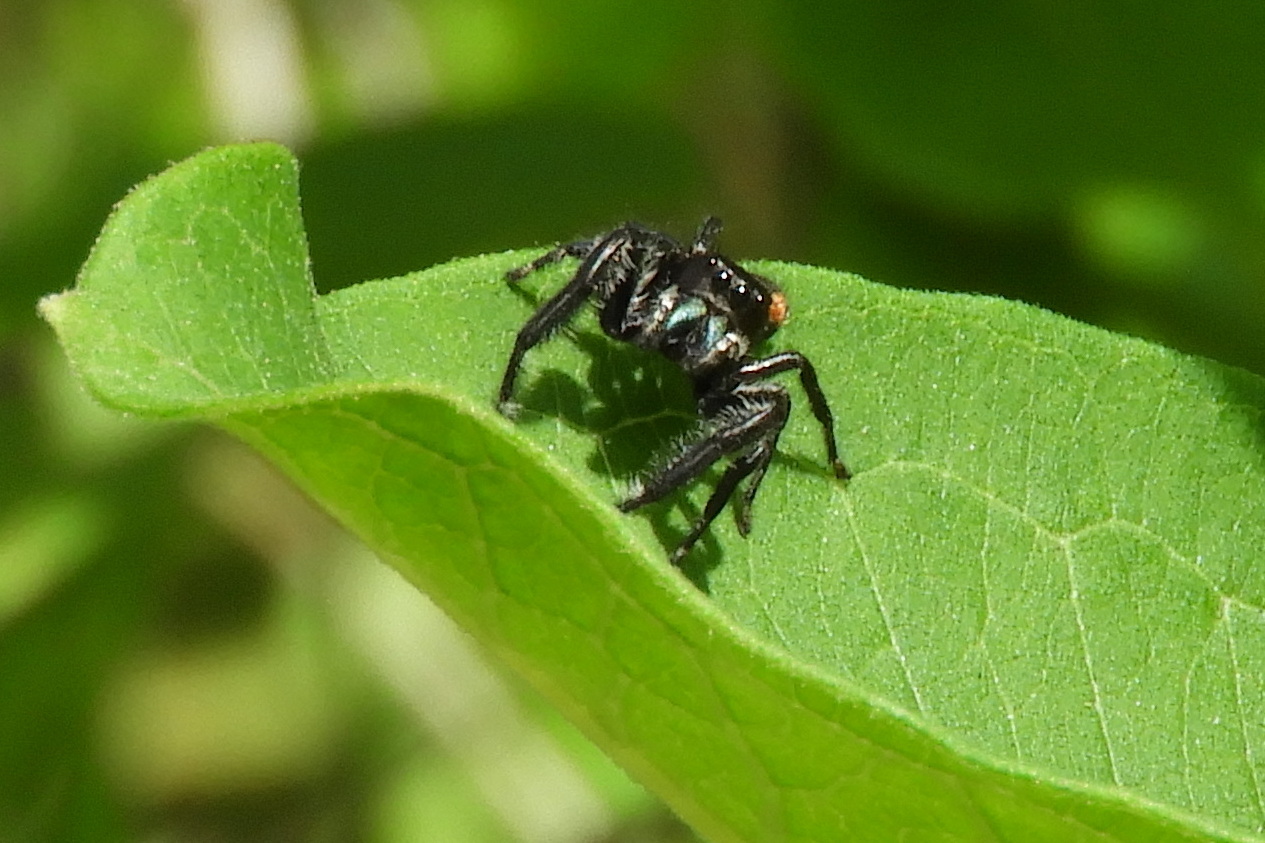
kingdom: Animalia
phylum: Arthropoda
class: Arachnida
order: Araneae
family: Salticidae
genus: Phidippus
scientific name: Phidippus clarus
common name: Brilliant jumping spider
